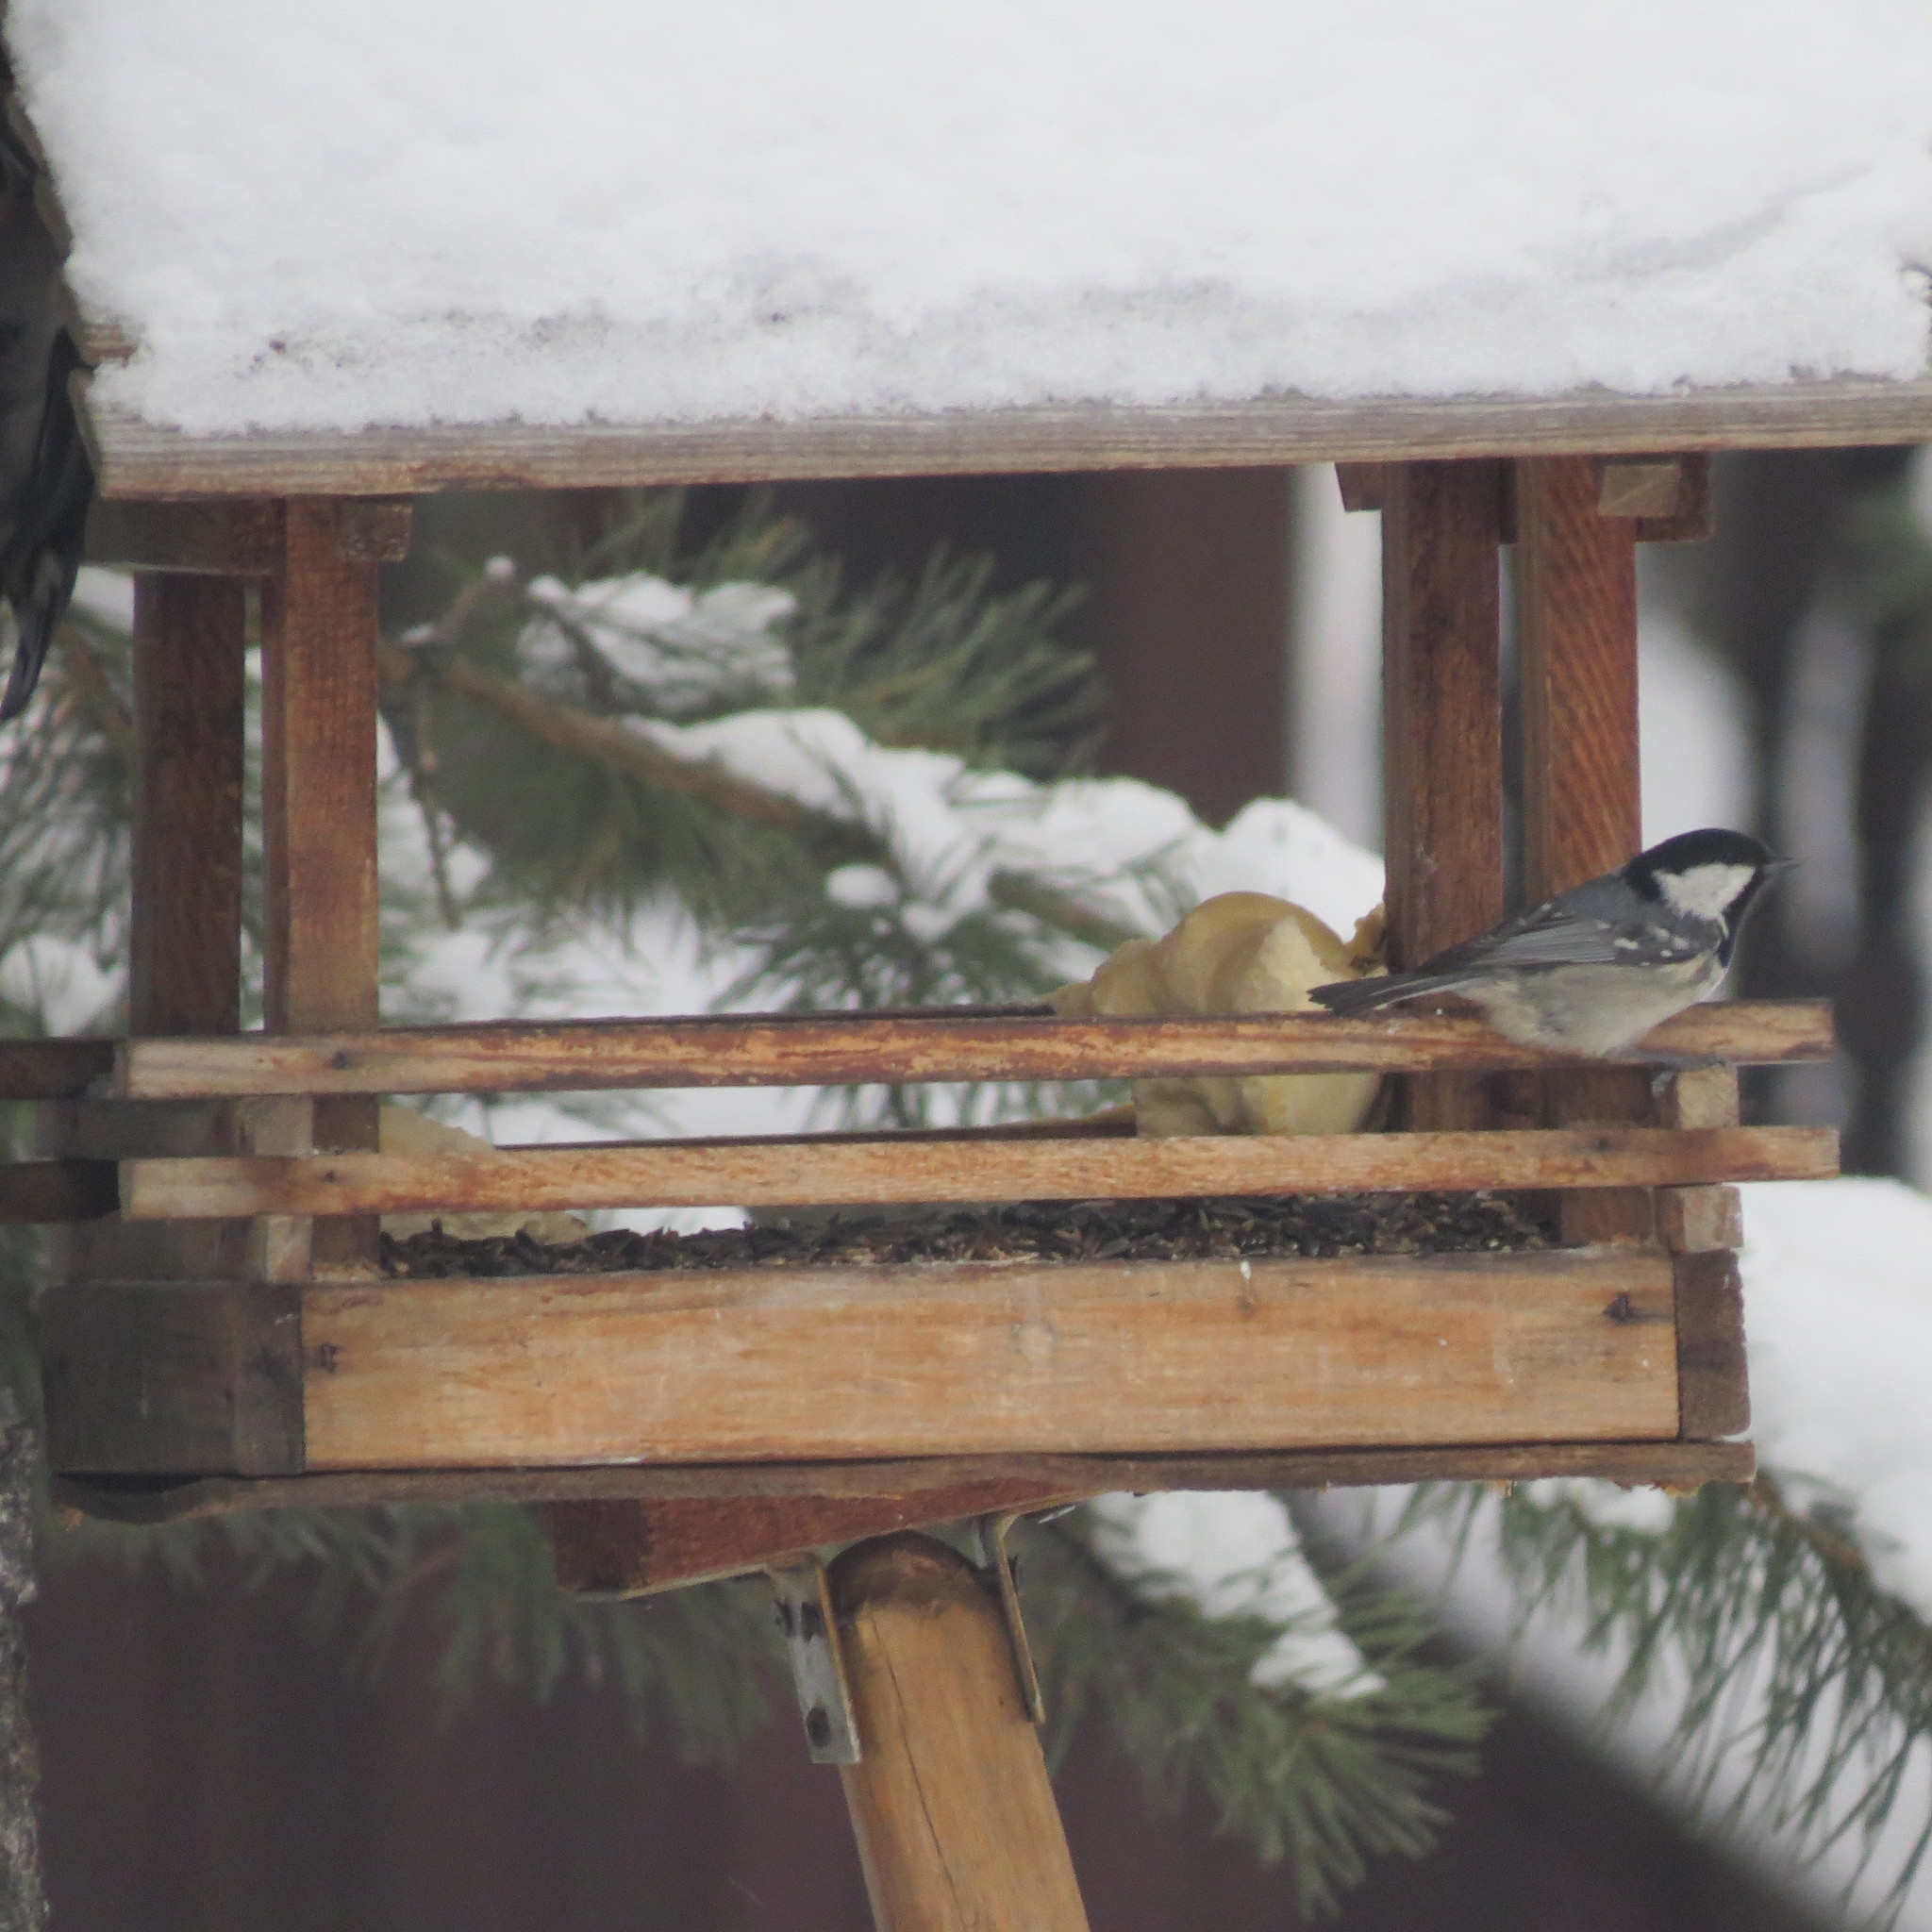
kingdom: Animalia
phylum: Chordata
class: Aves
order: Passeriformes
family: Paridae
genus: Periparus
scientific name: Periparus ater
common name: Coal tit
